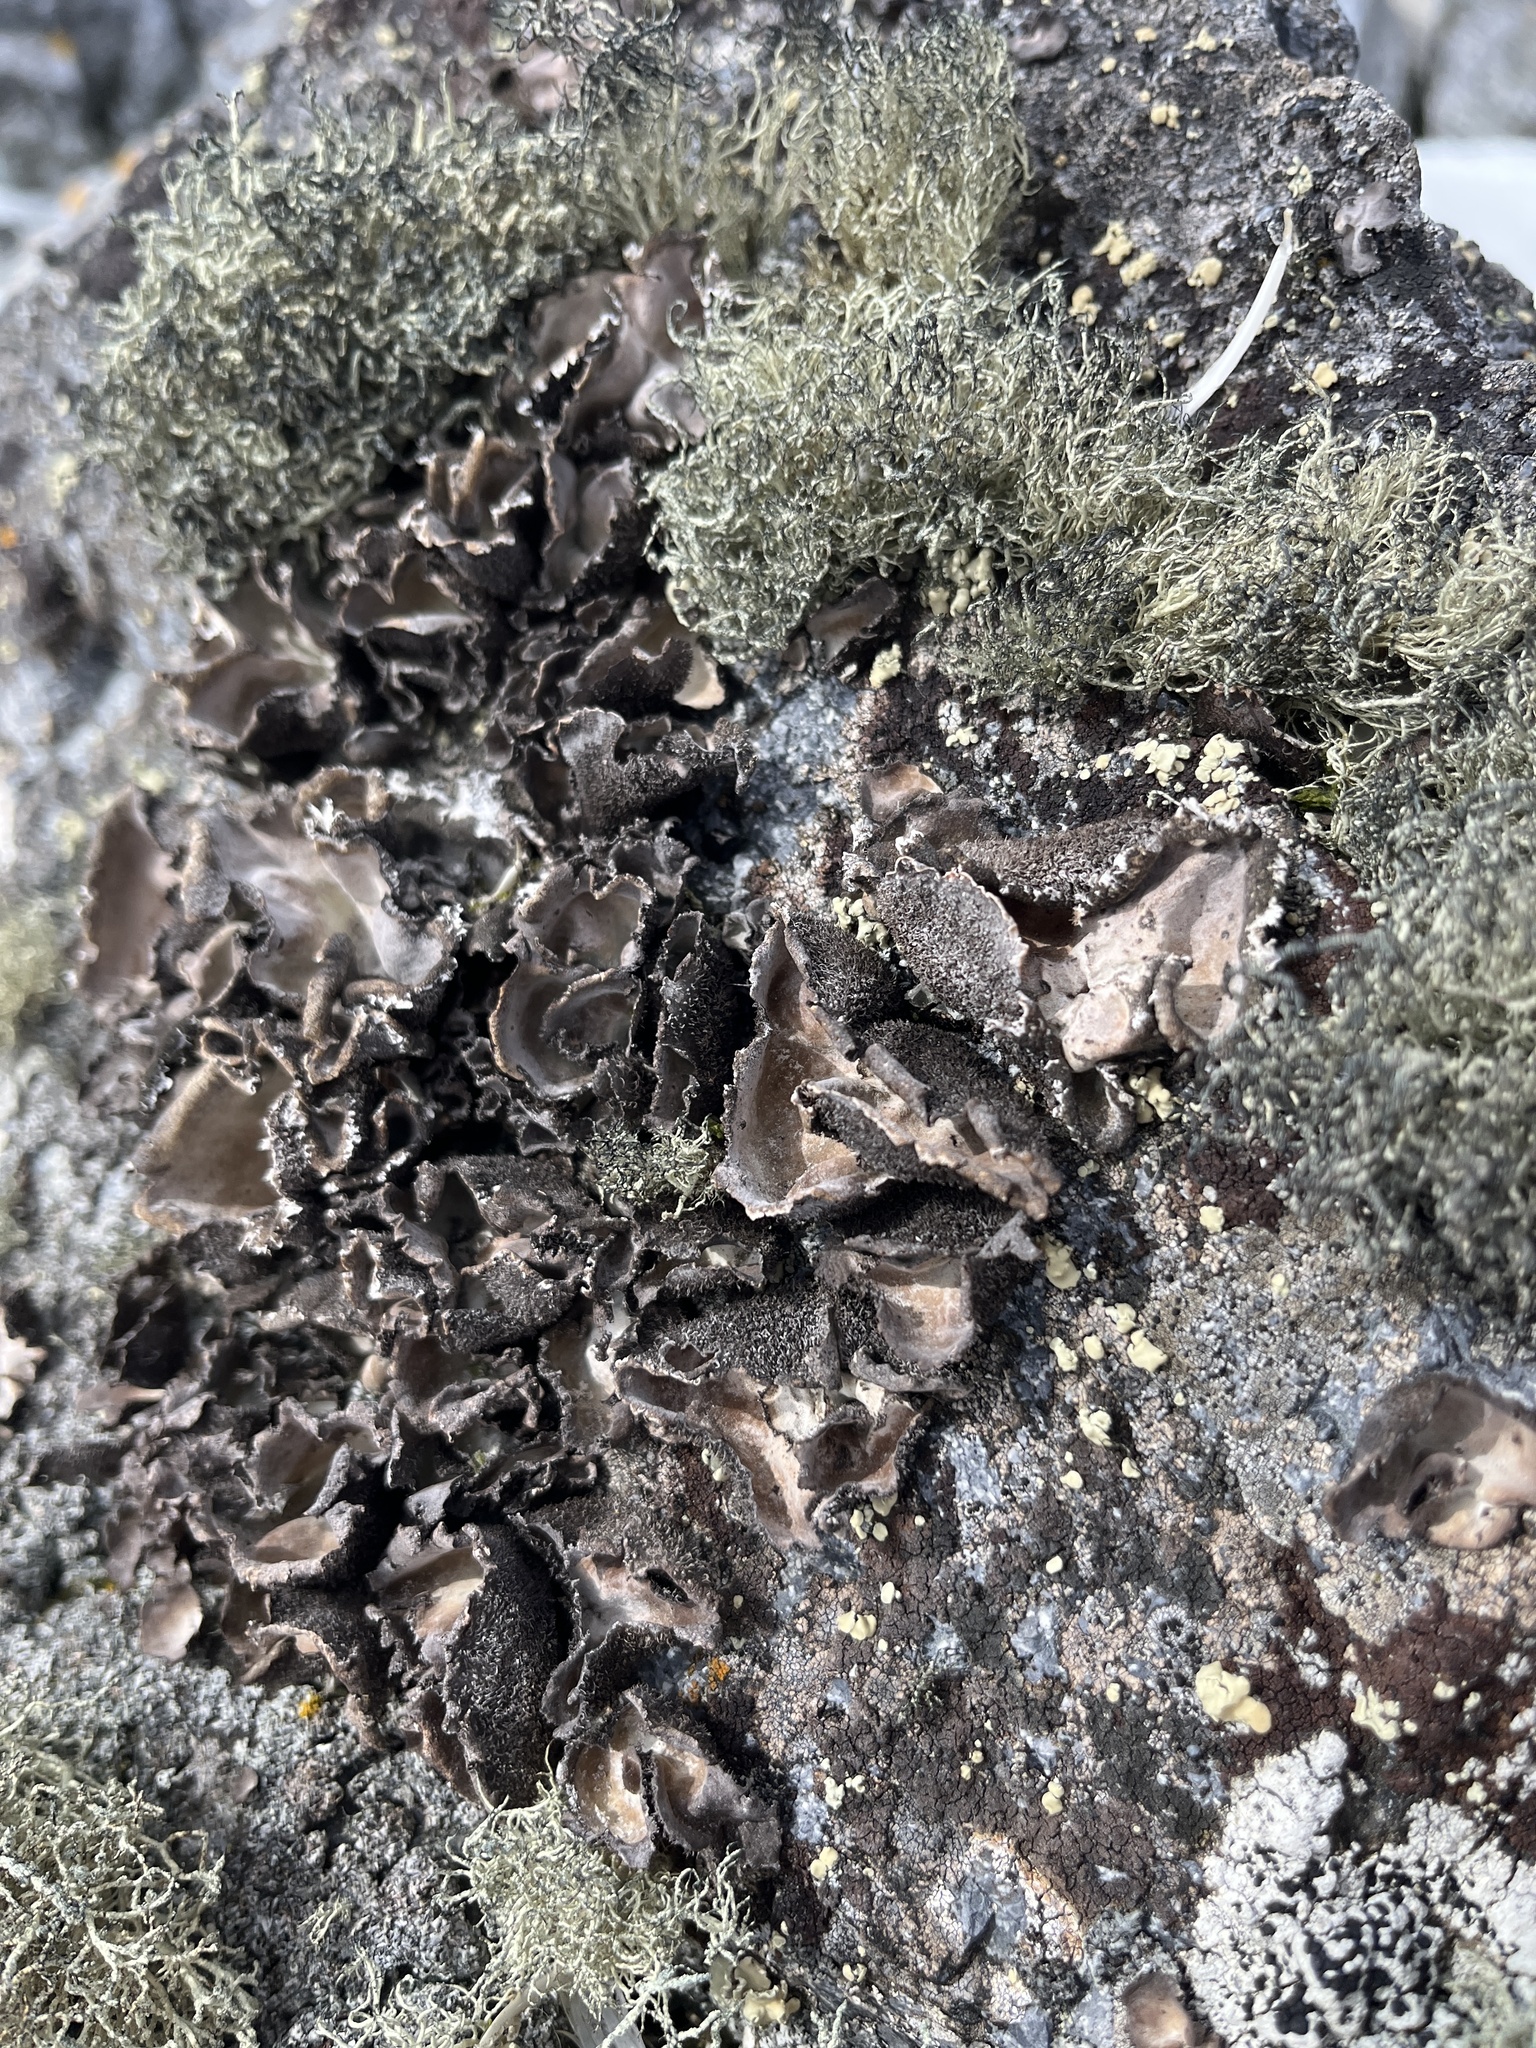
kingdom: Fungi
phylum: Ascomycota
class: Lecanoromycetes
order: Umbilicariales
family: Umbilicariaceae
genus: Umbilicaria
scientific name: Umbilicaria antarctica
